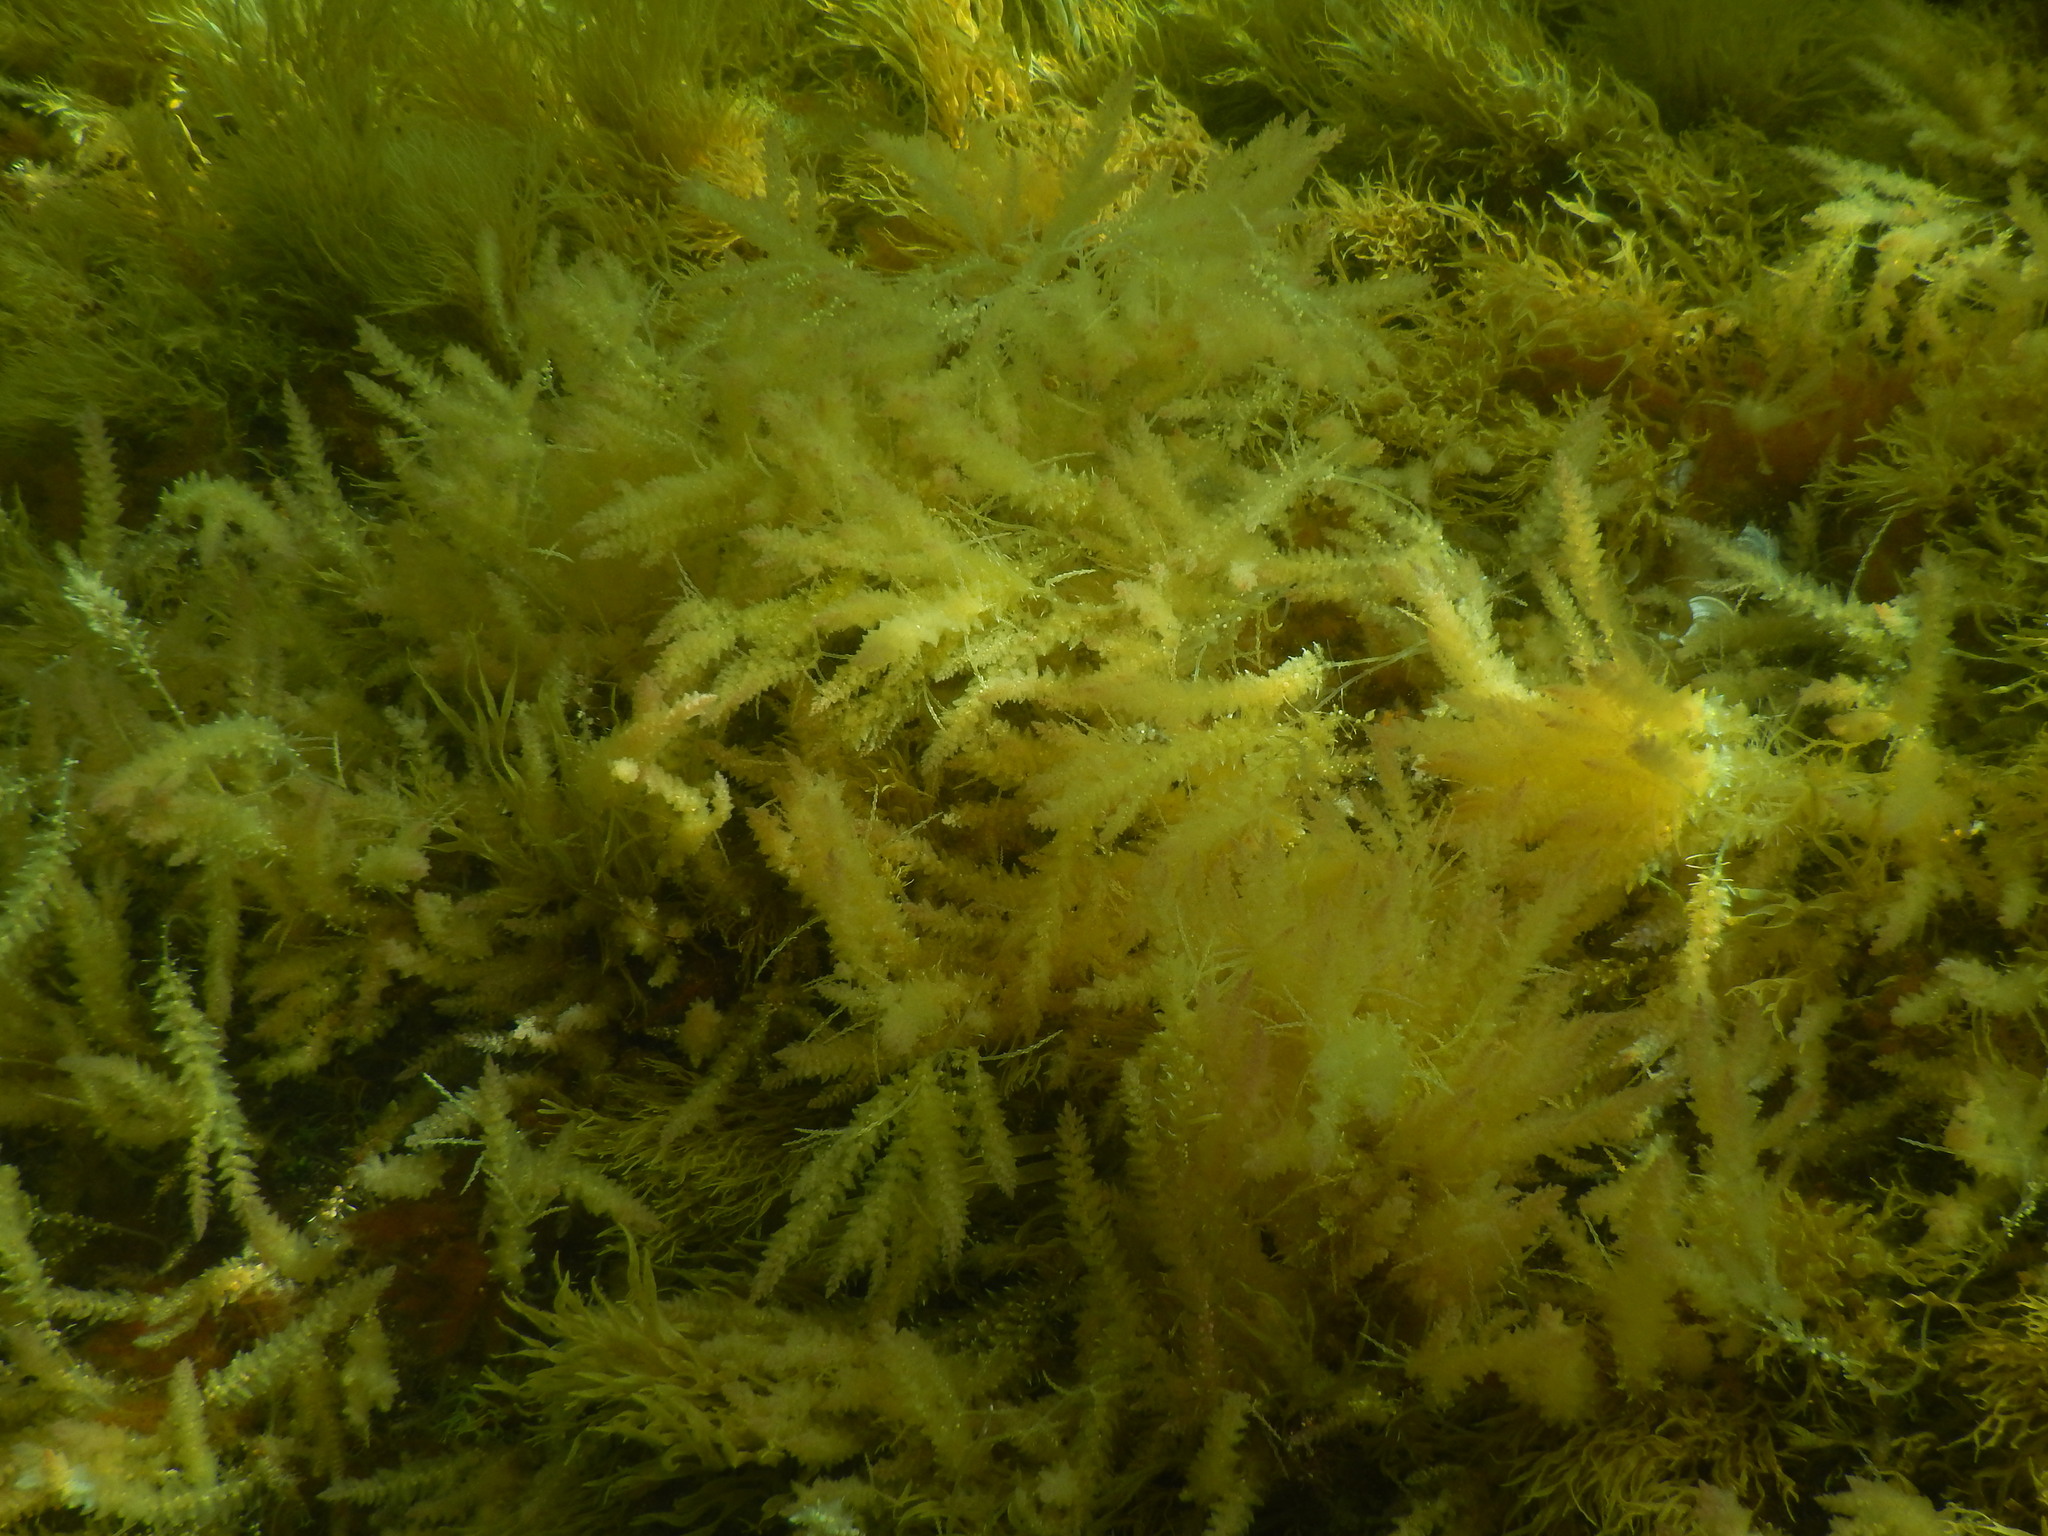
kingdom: Plantae
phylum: Rhodophyta
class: Florideophyceae
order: Bonnemaisoniales
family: Bonnemaisoniaceae
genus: Asparagopsis
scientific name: Asparagopsis armata
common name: Harpoon weed
